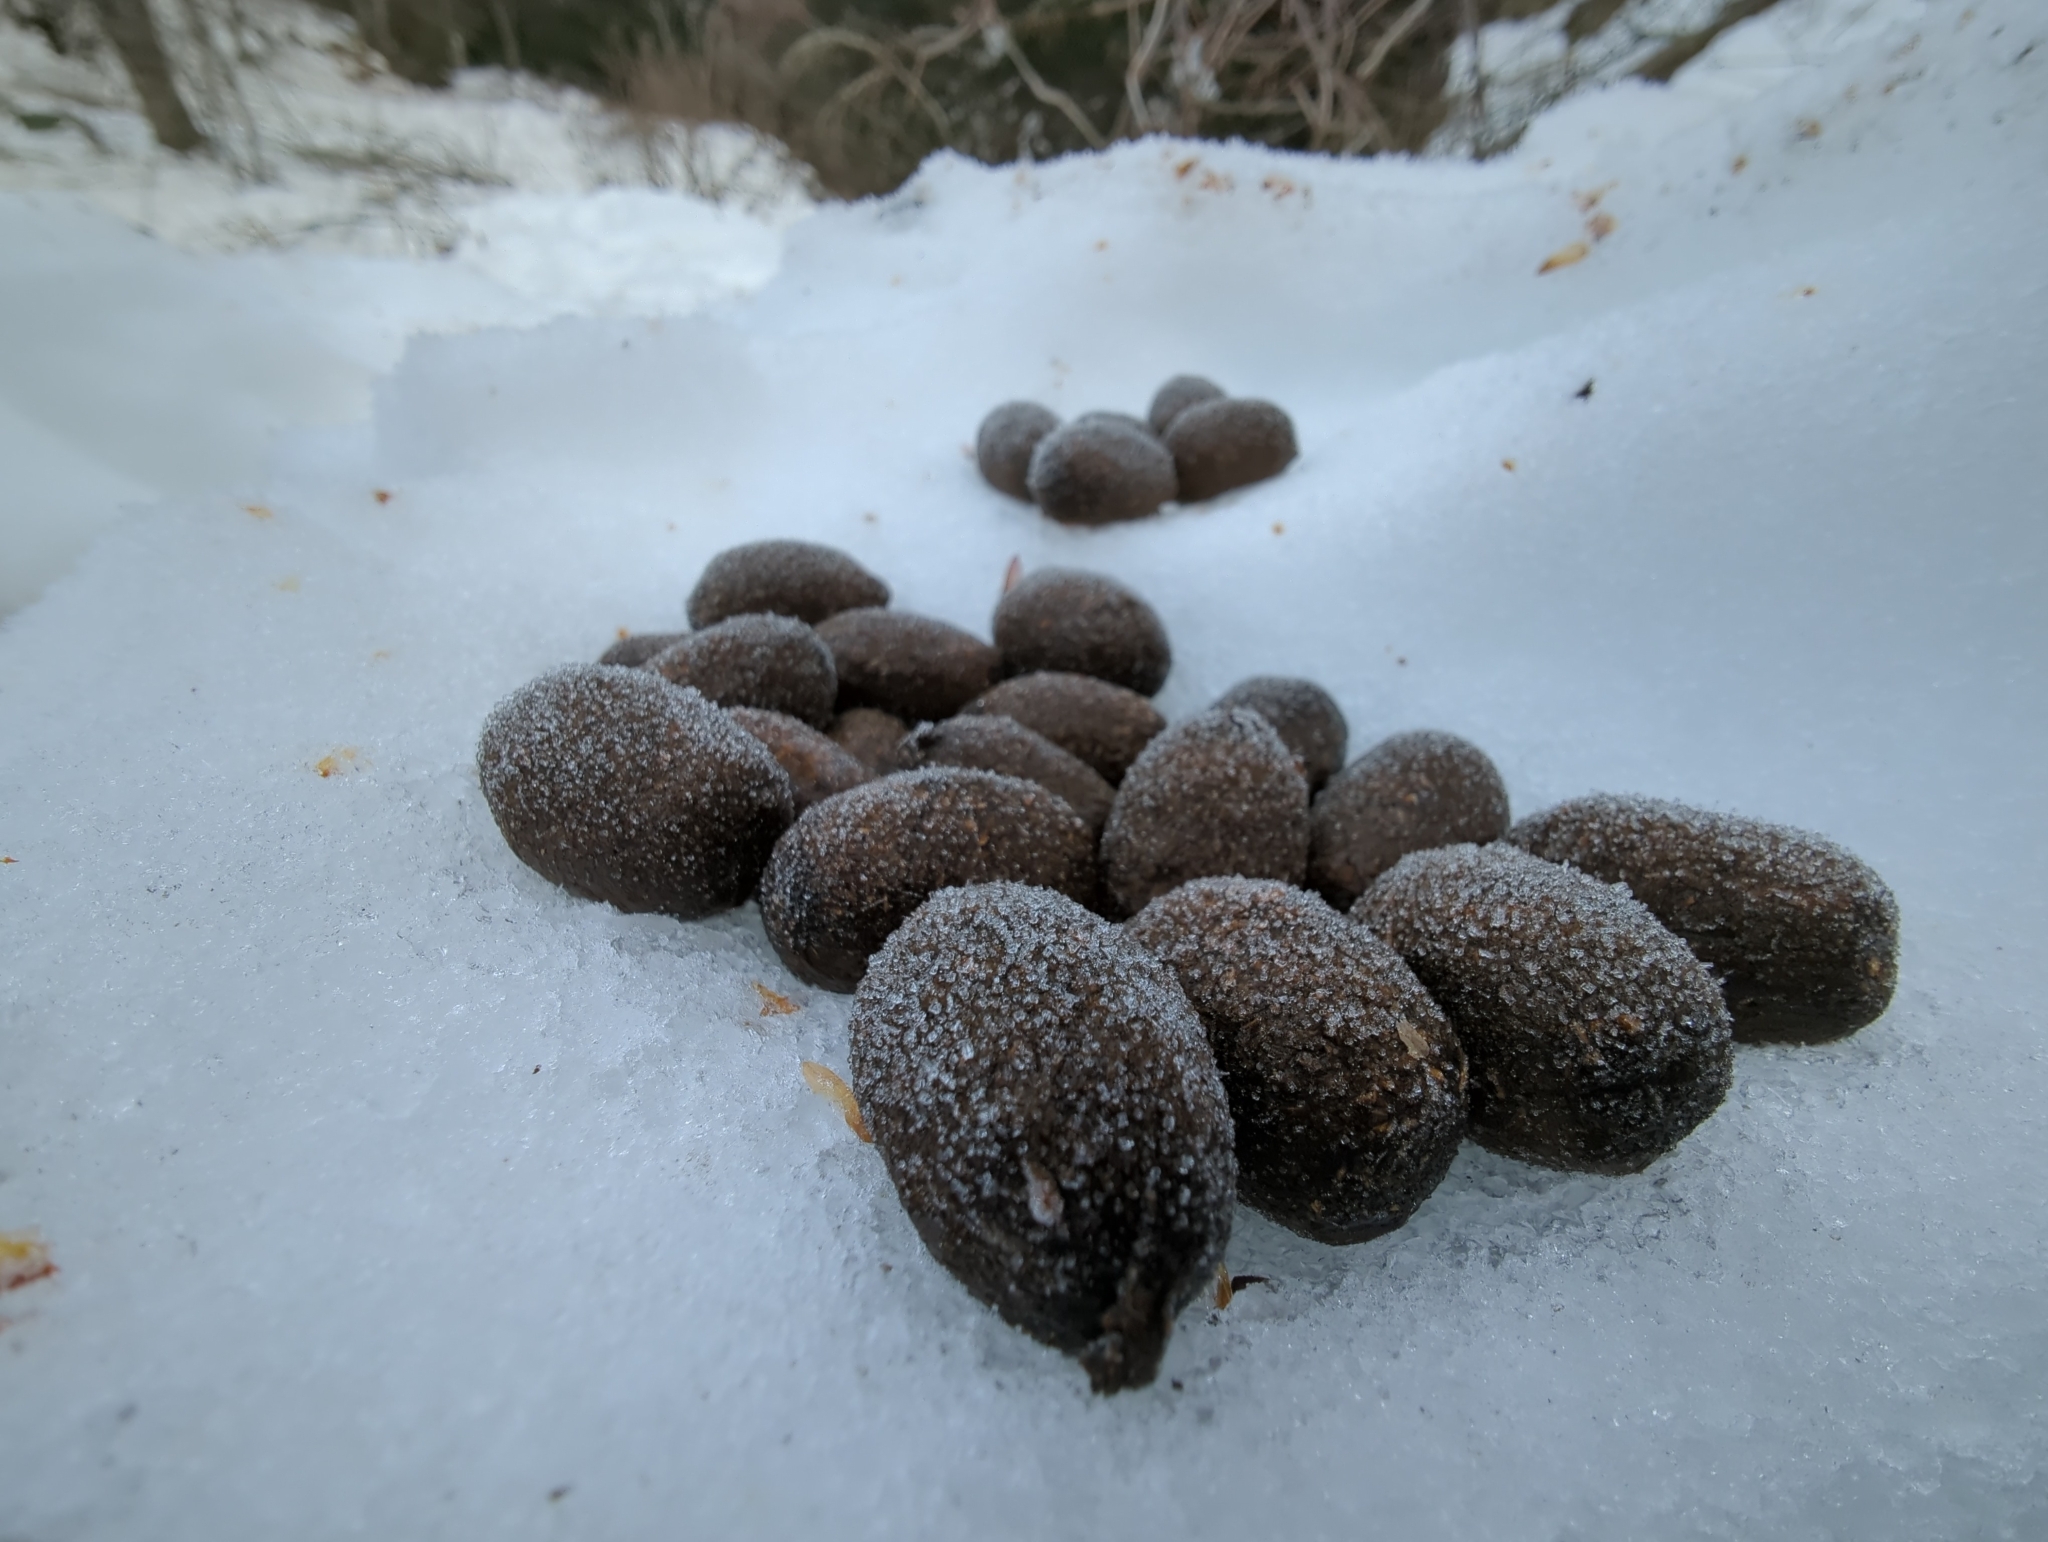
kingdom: Animalia
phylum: Chordata
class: Mammalia
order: Artiodactyla
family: Cervidae
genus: Alces
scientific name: Alces alces
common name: Moose
